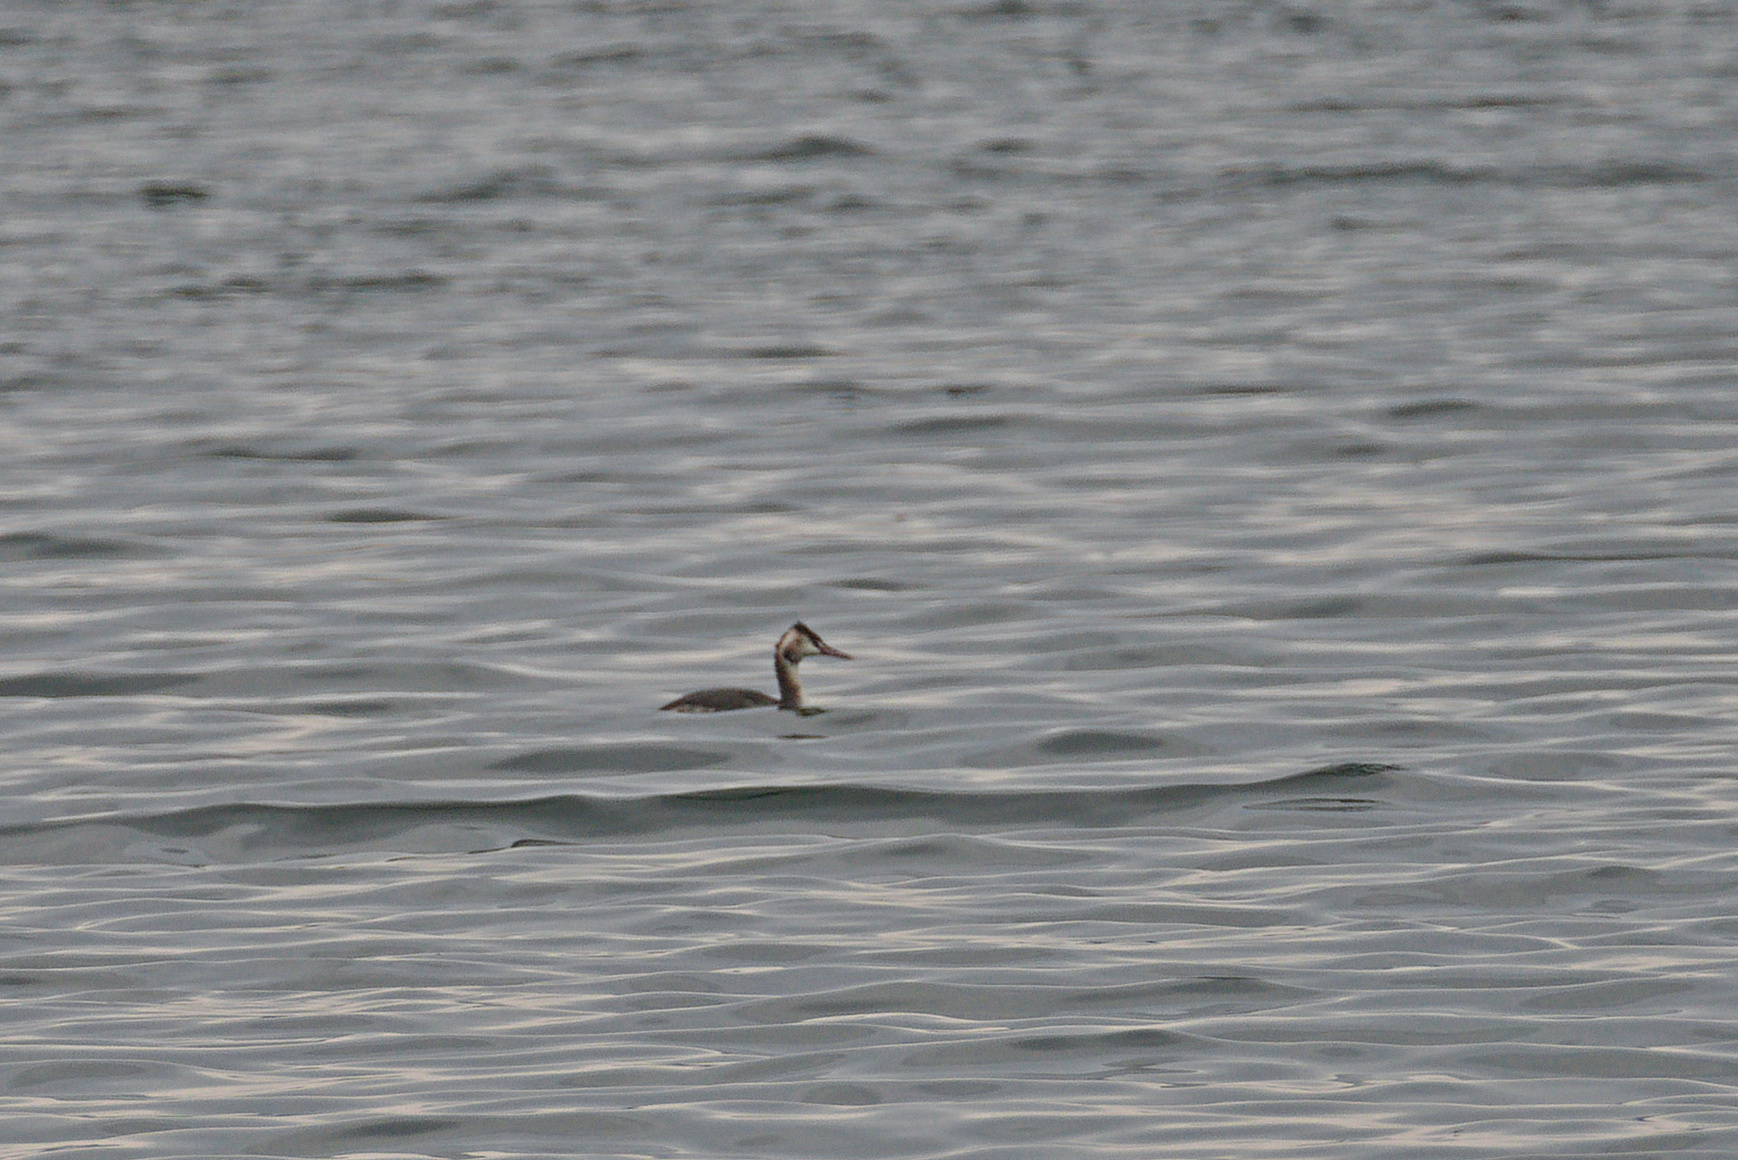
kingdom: Animalia
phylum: Chordata
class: Aves
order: Podicipediformes
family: Podicipedidae
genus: Podiceps
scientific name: Podiceps cristatus
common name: Great crested grebe
